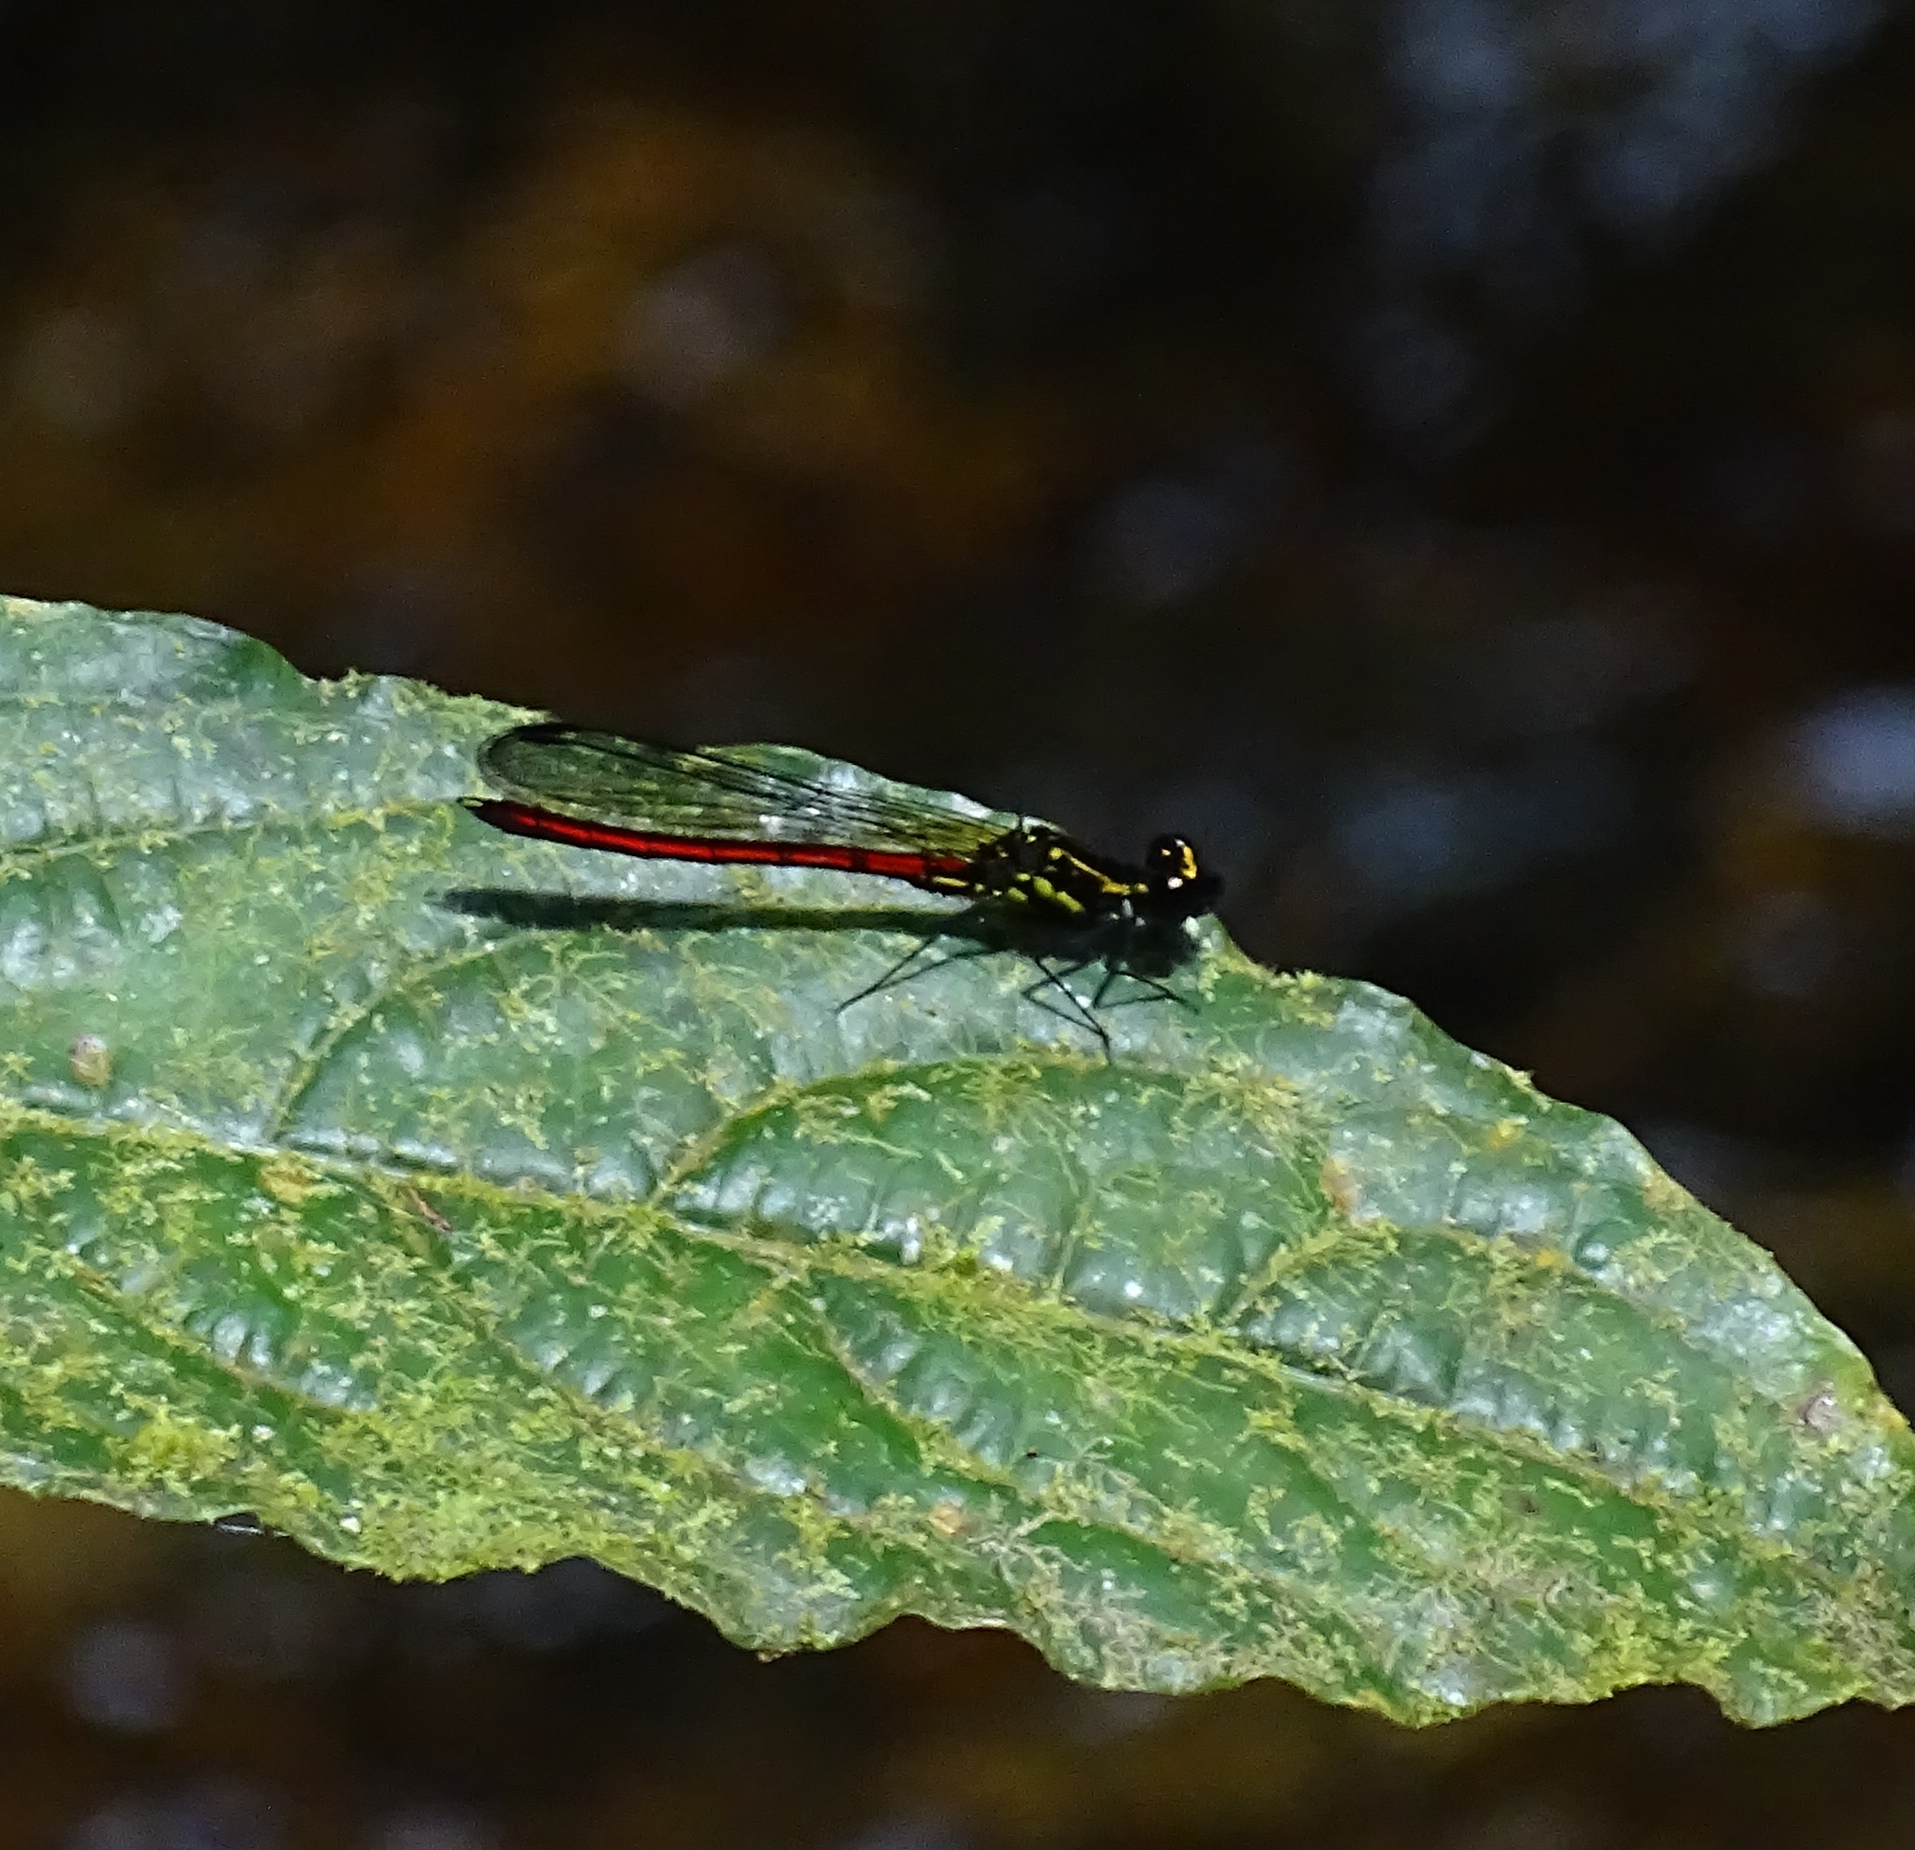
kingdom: Animalia
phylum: Arthropoda
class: Insecta
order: Odonata
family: Chlorocyphidae
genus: Stenocypha
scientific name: Stenocypha molindica
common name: Bow-faced jewel
